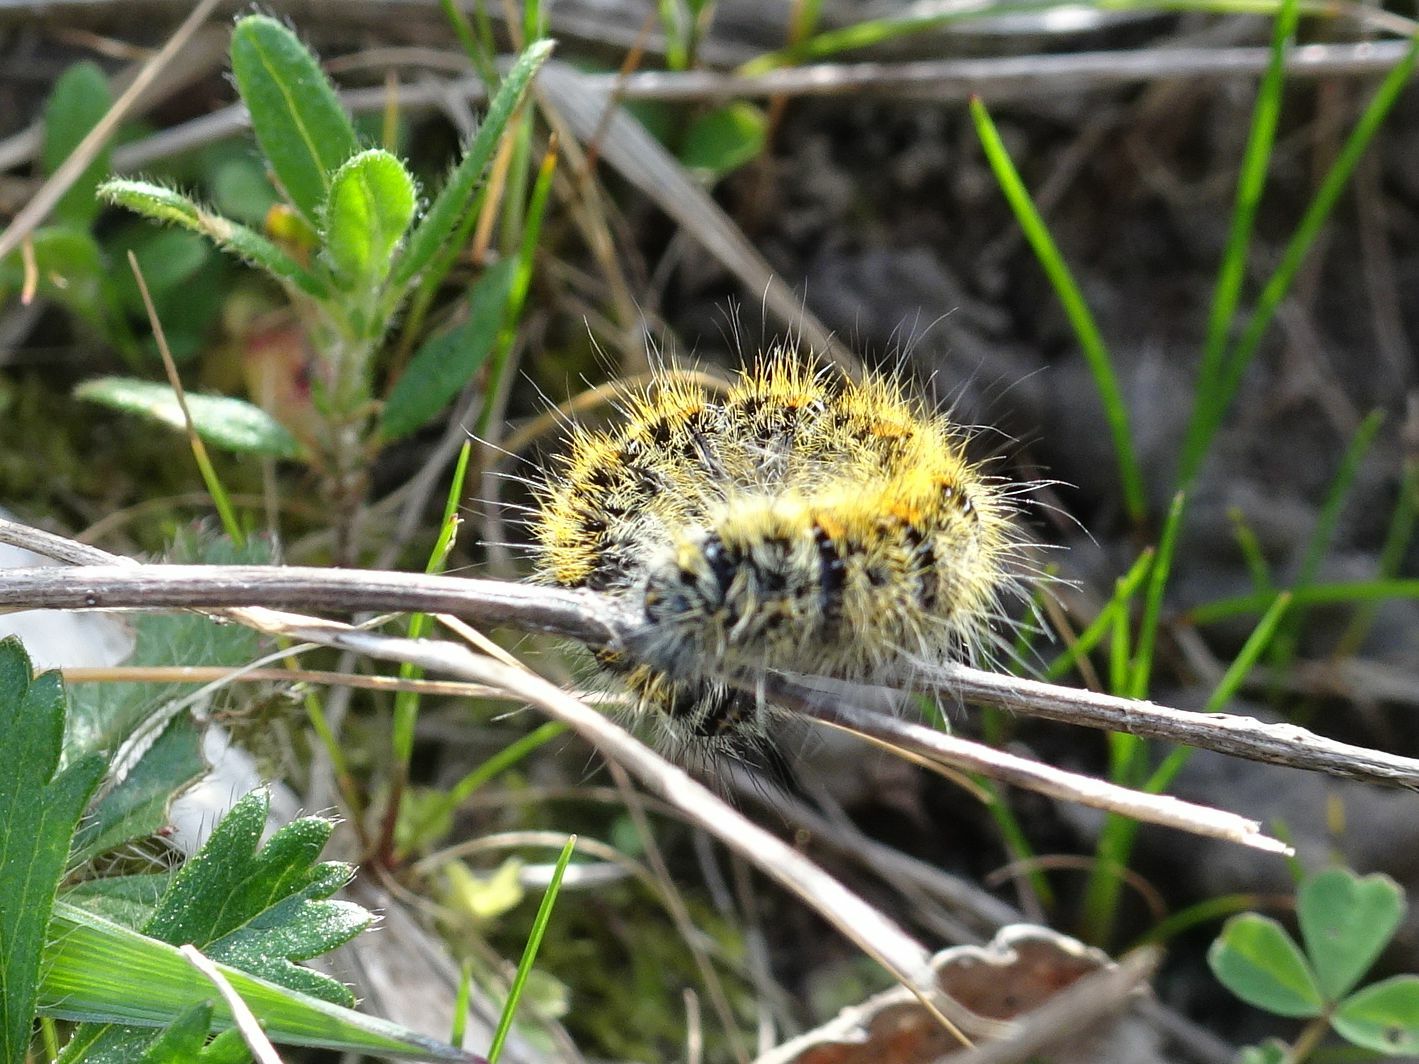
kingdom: Animalia
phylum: Arthropoda
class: Insecta
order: Lepidoptera
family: Lasiocampidae
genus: Lasiocampa
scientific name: Lasiocampa trifolii
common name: Grass eggar
